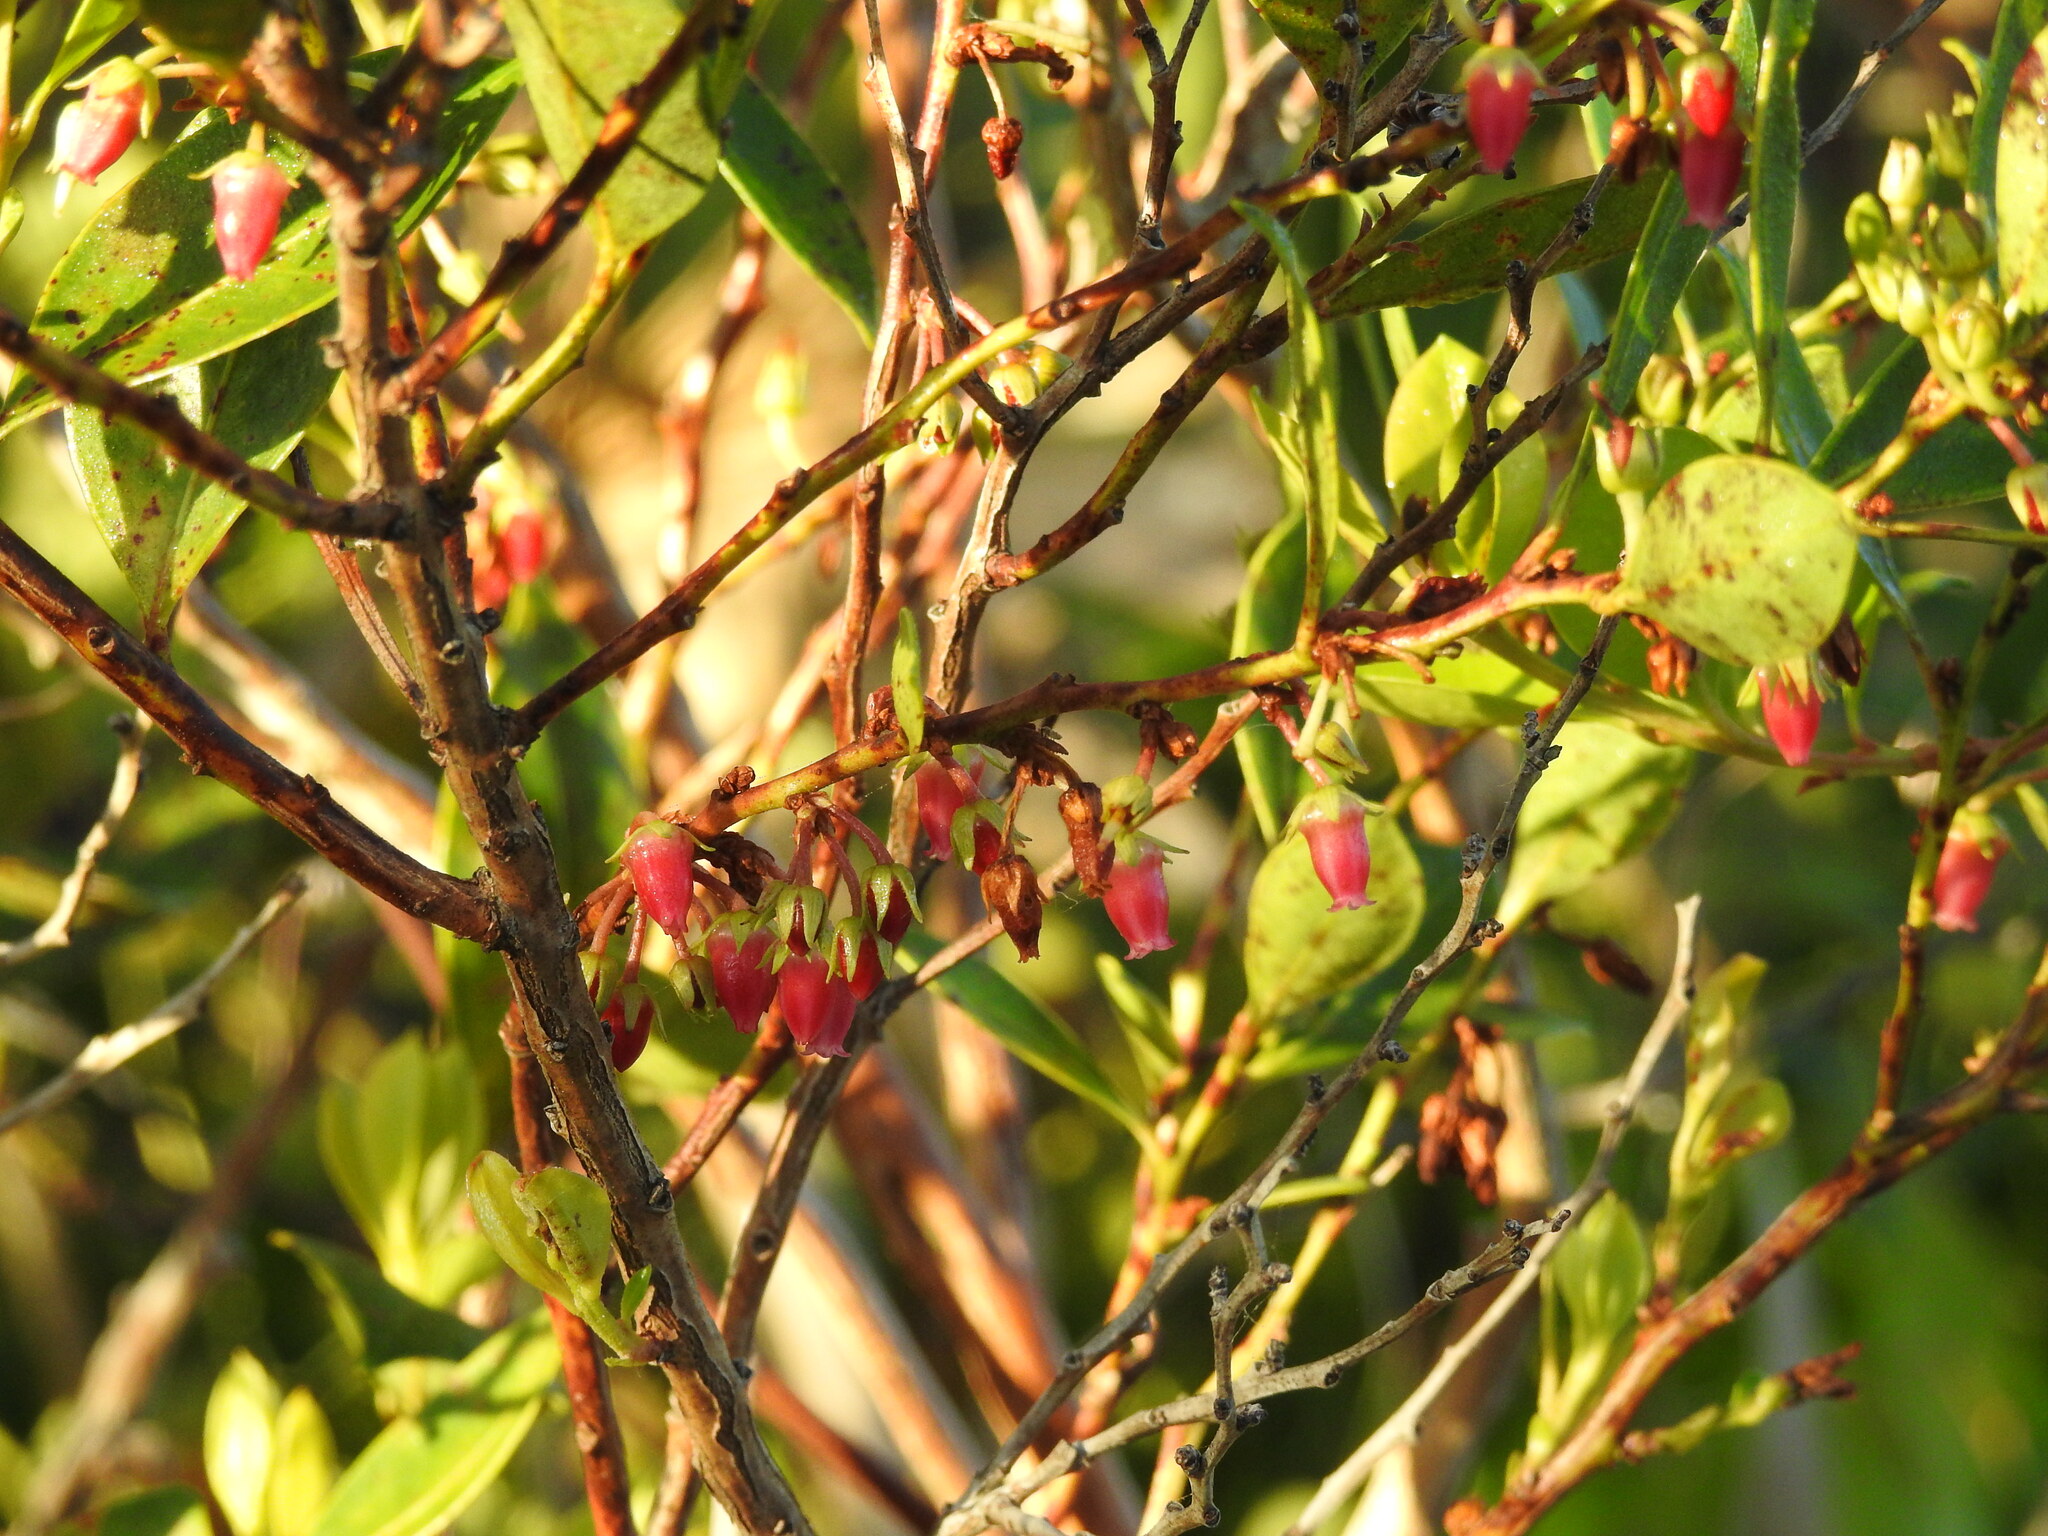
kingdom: Plantae
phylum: Tracheophyta
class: Magnoliopsida
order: Ericales
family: Ericaceae
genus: Lyonia
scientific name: Lyonia lucida
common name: Fetterbush
